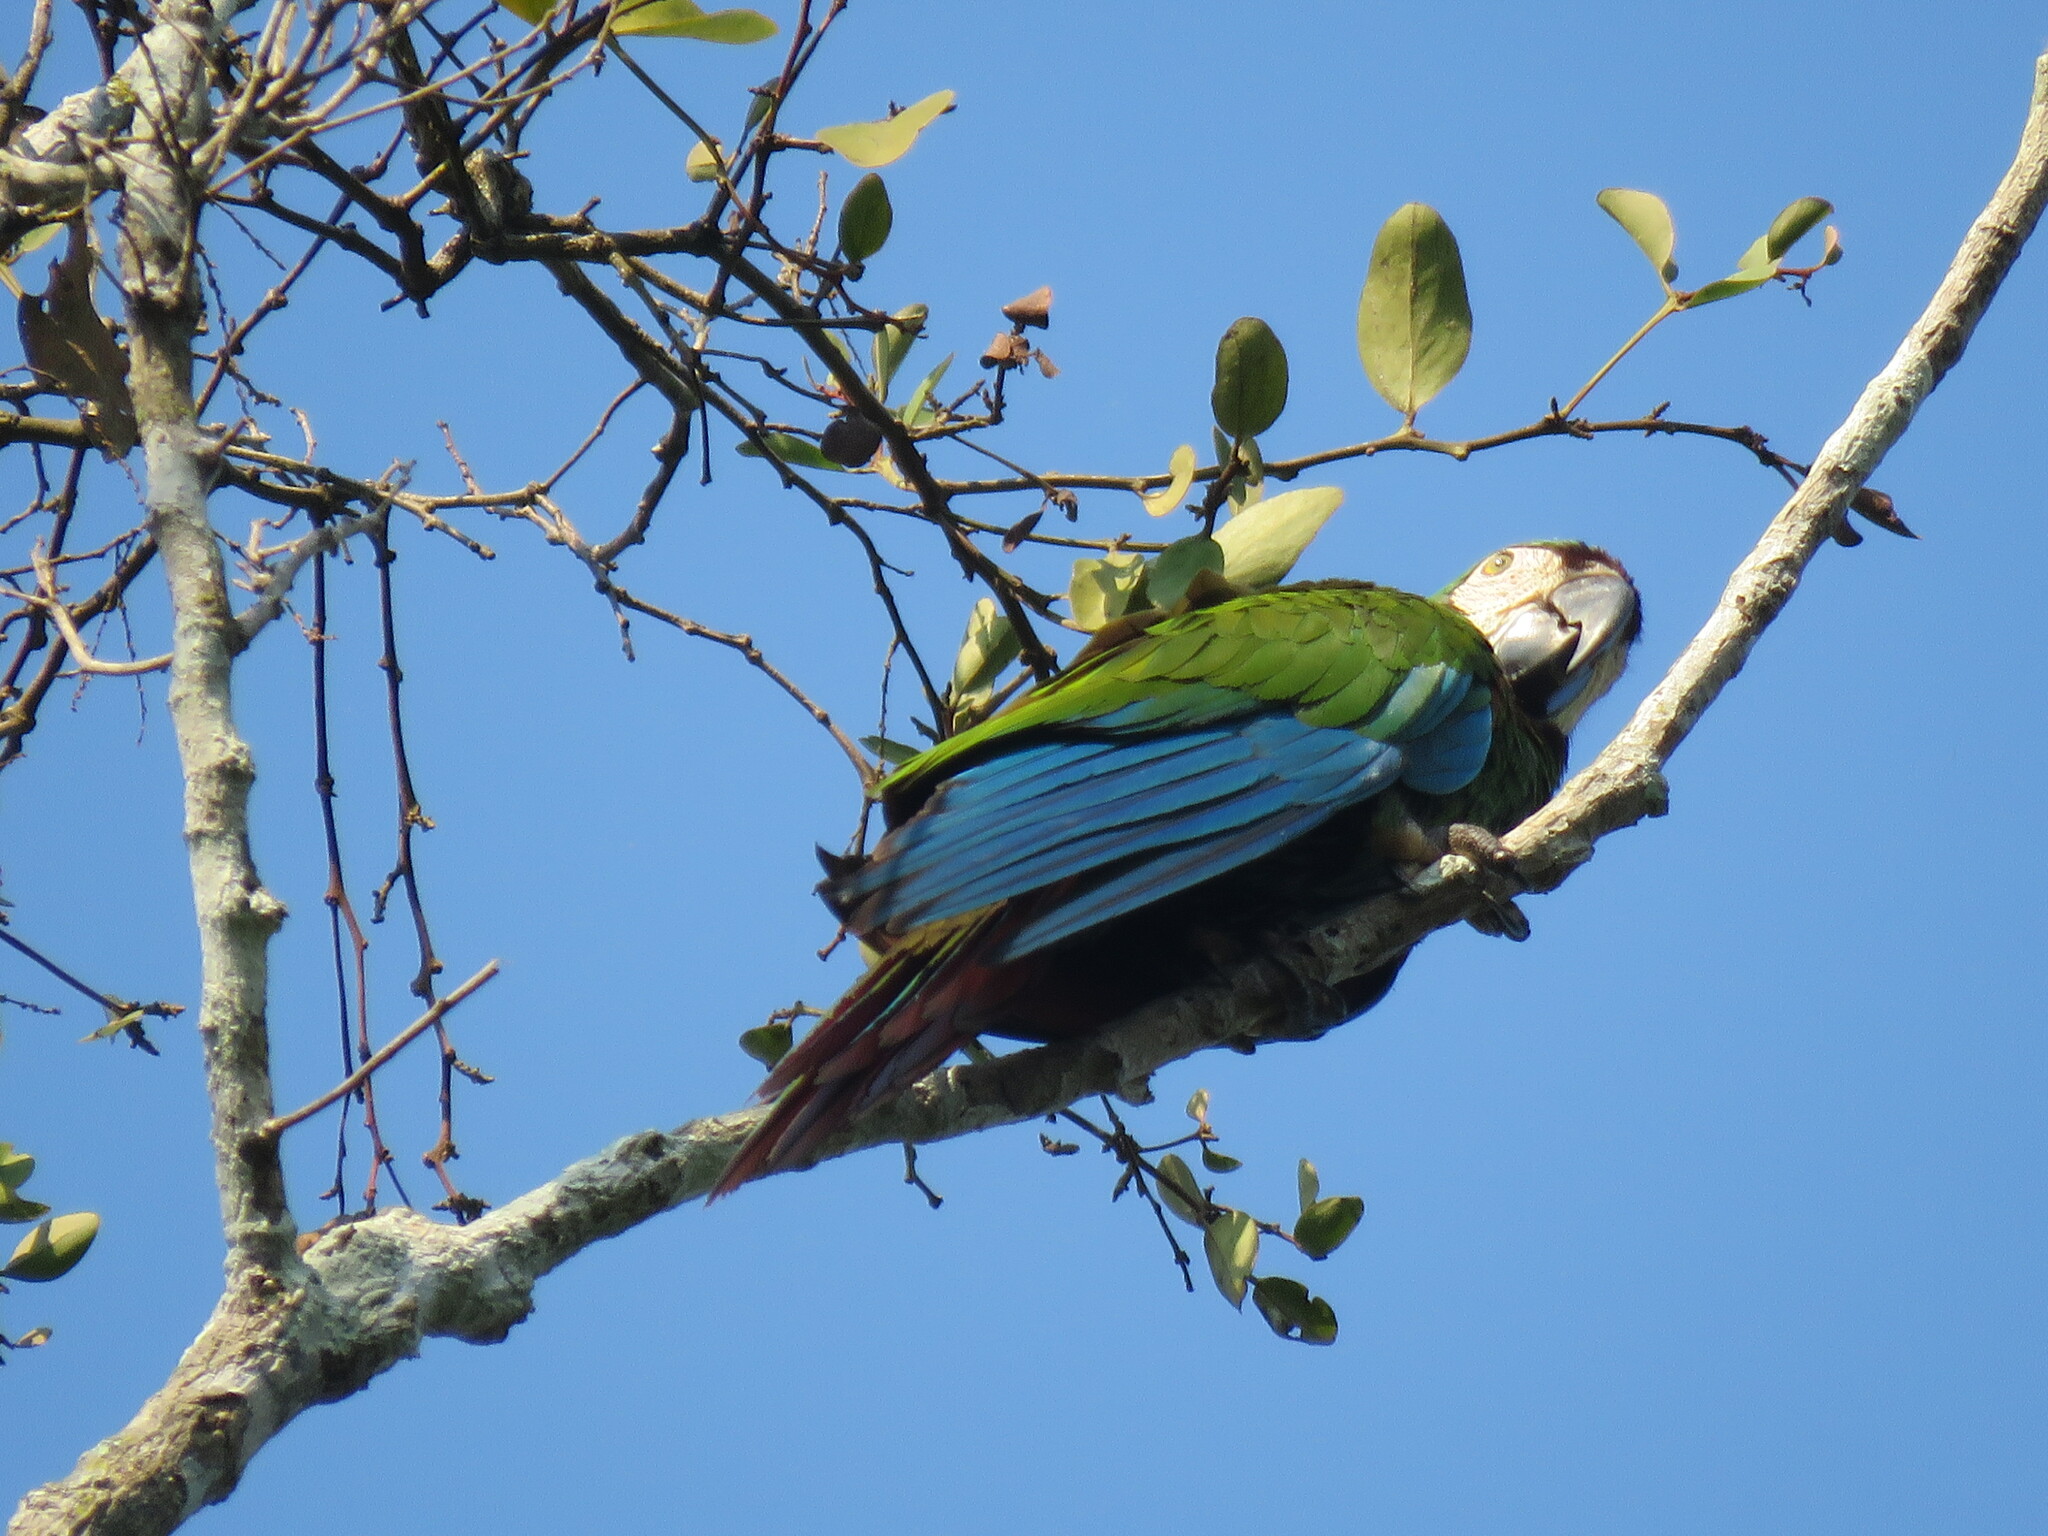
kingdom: Animalia
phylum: Chordata
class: Aves
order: Psittaciformes
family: Psittacidae
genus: Ara
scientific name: Ara severus
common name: Chestnut-fronted macaw
